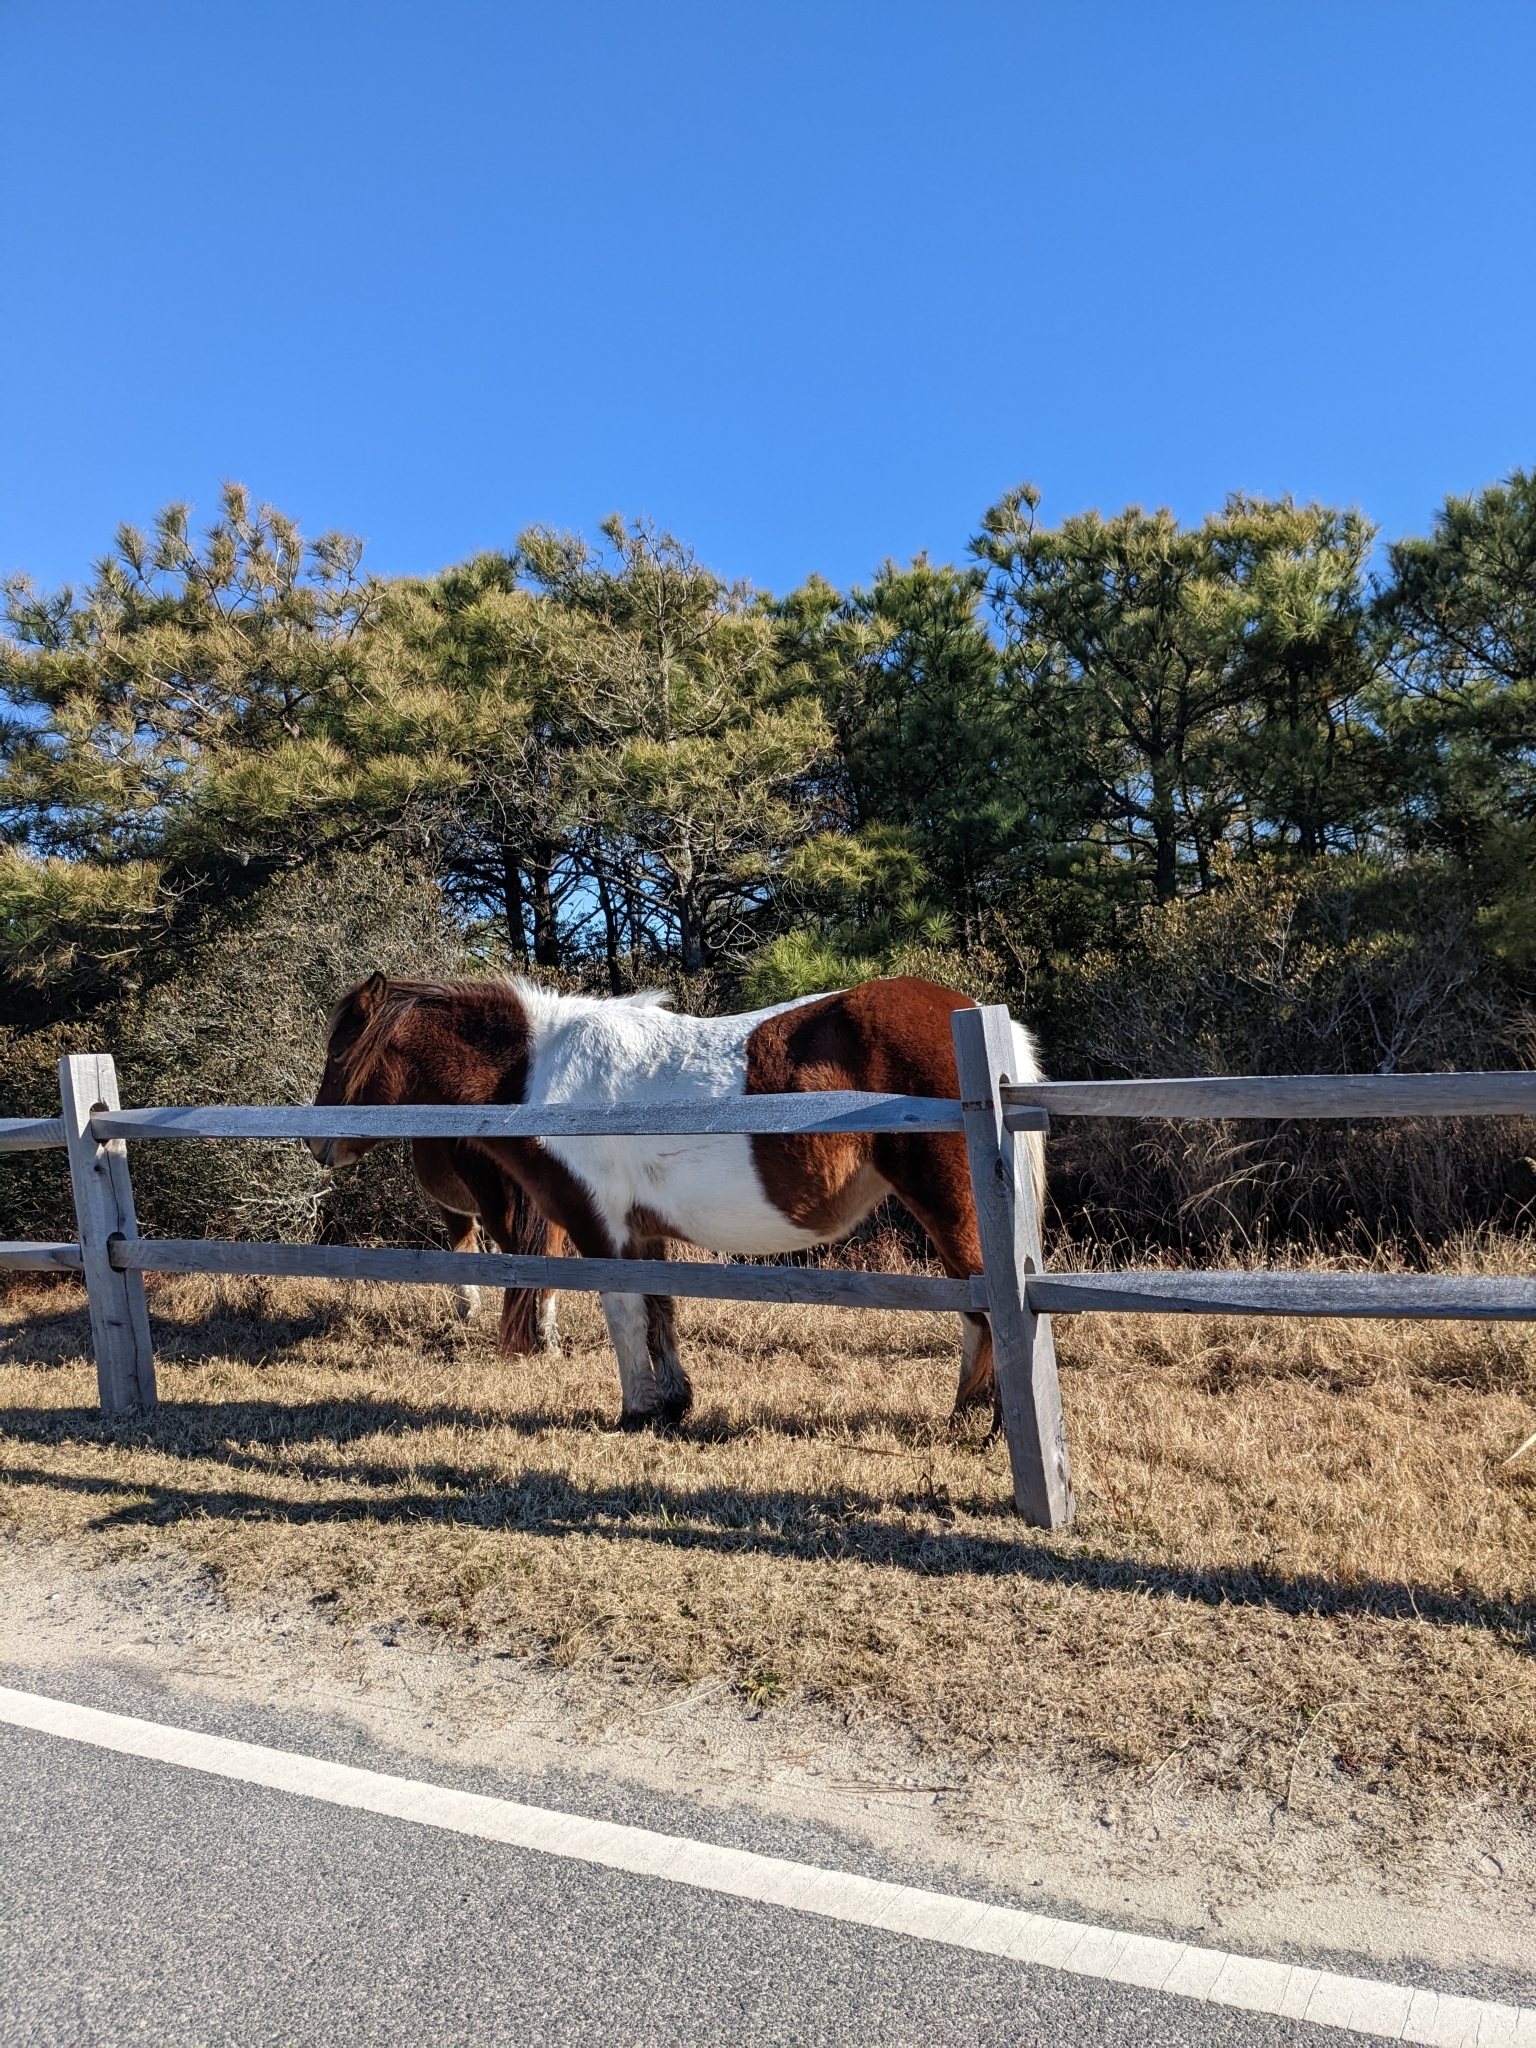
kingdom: Animalia
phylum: Chordata
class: Mammalia
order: Perissodactyla
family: Equidae
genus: Equus
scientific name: Equus caballus
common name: Horse
